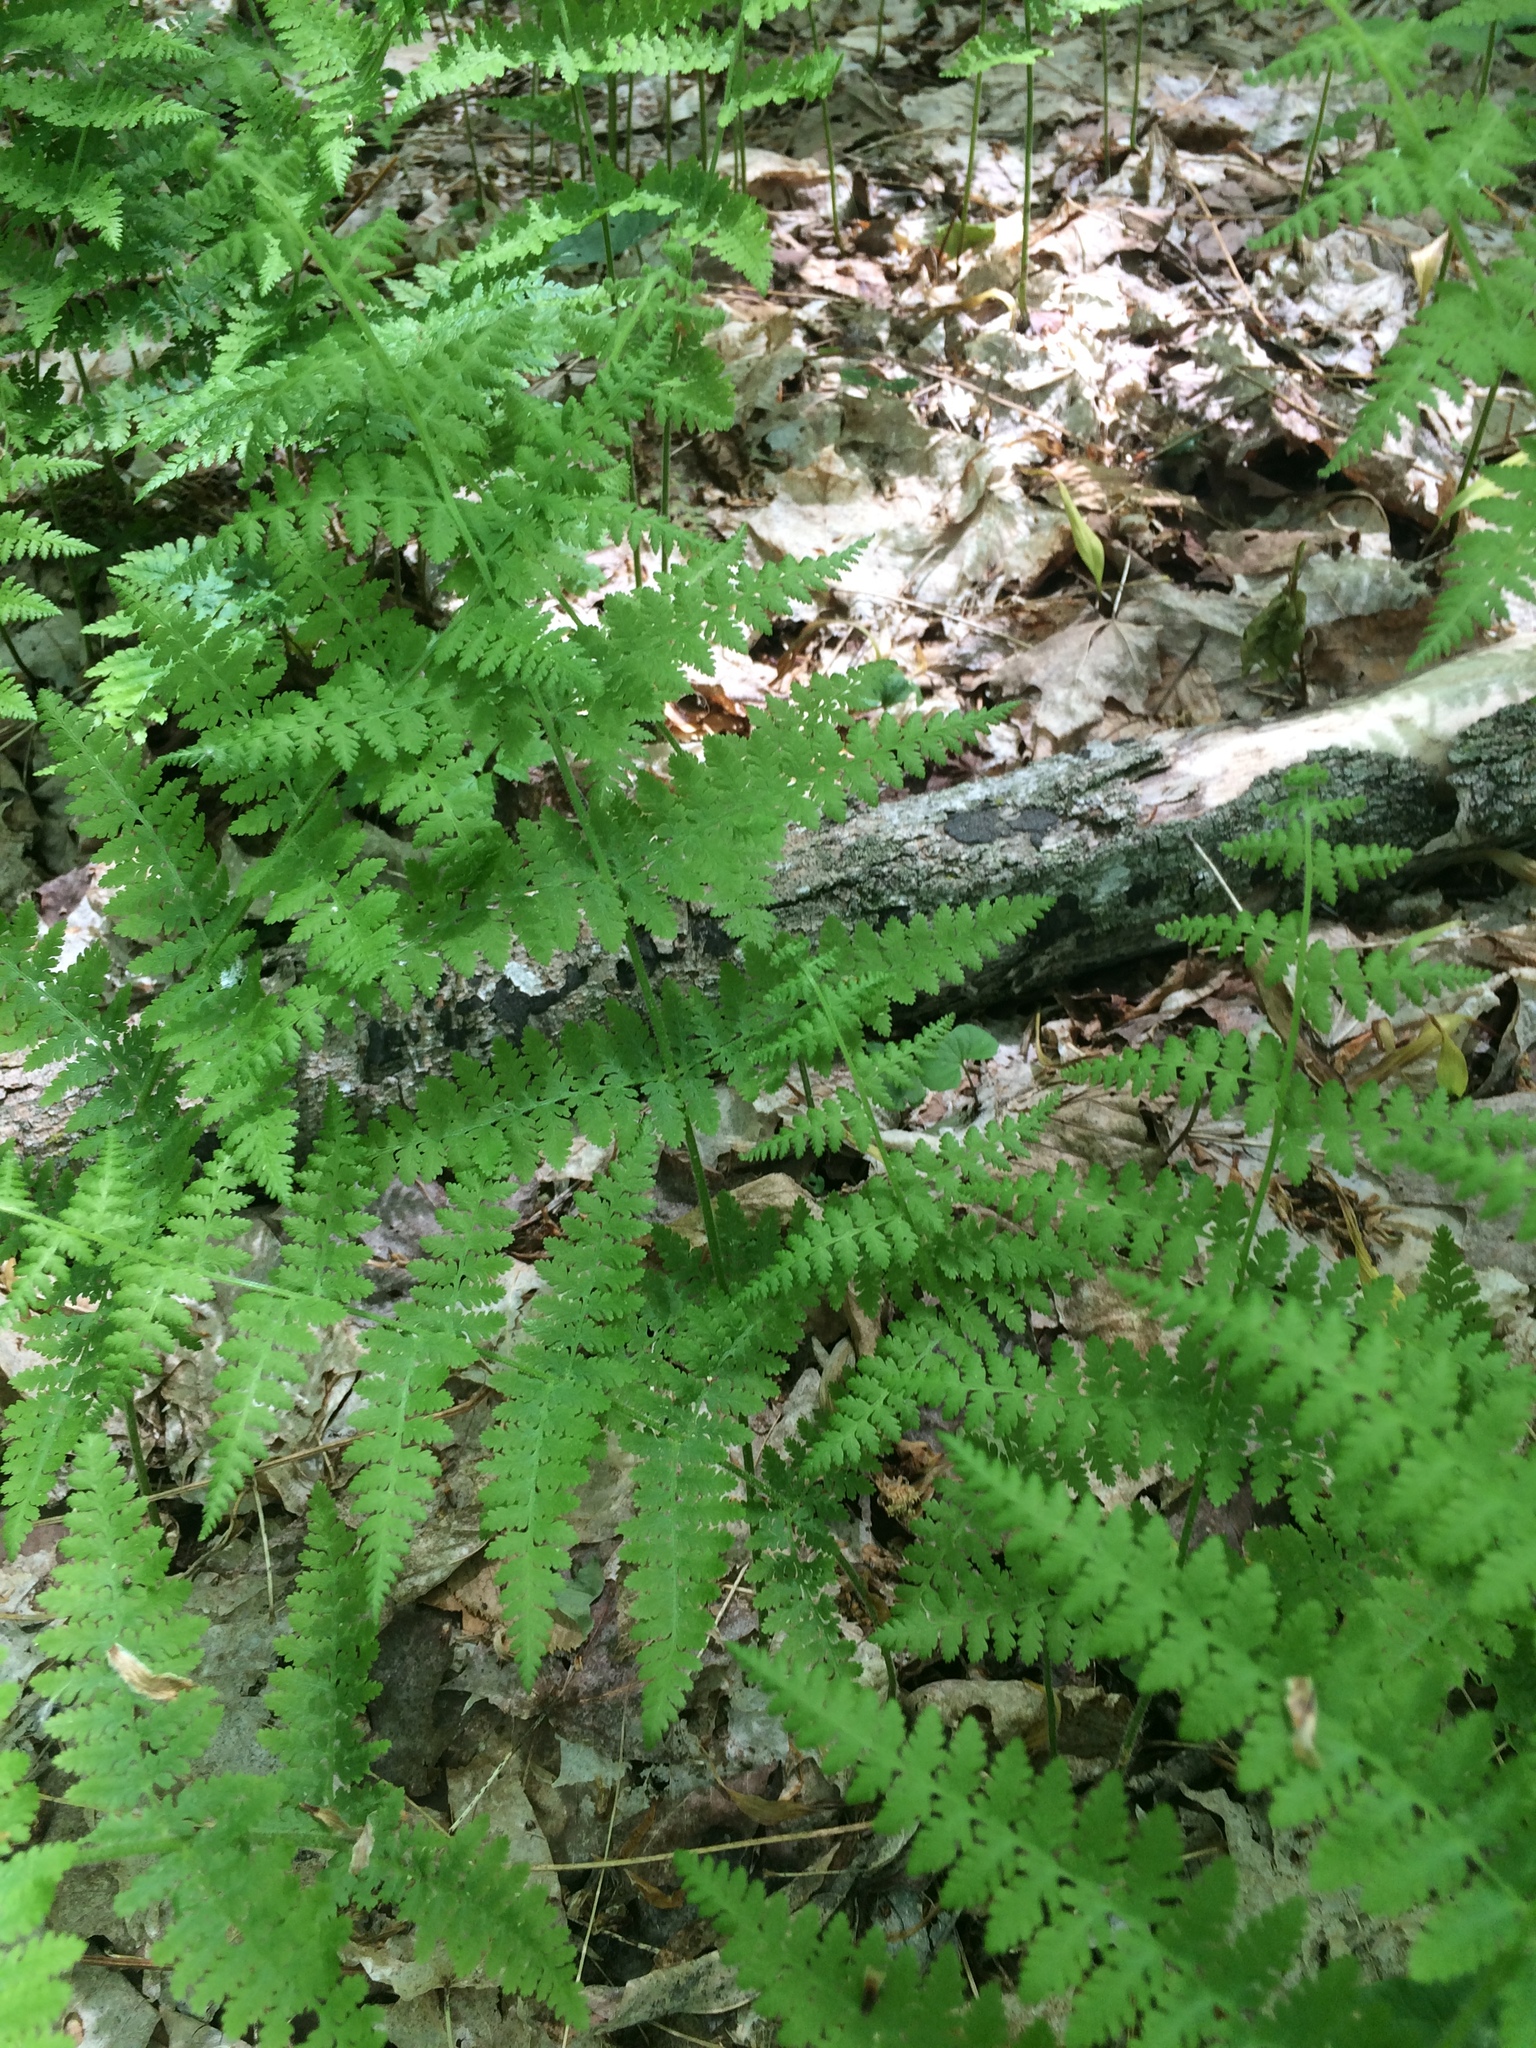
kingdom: Plantae
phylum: Tracheophyta
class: Polypodiopsida
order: Polypodiales
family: Dennstaedtiaceae
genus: Sitobolium
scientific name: Sitobolium punctilobum
